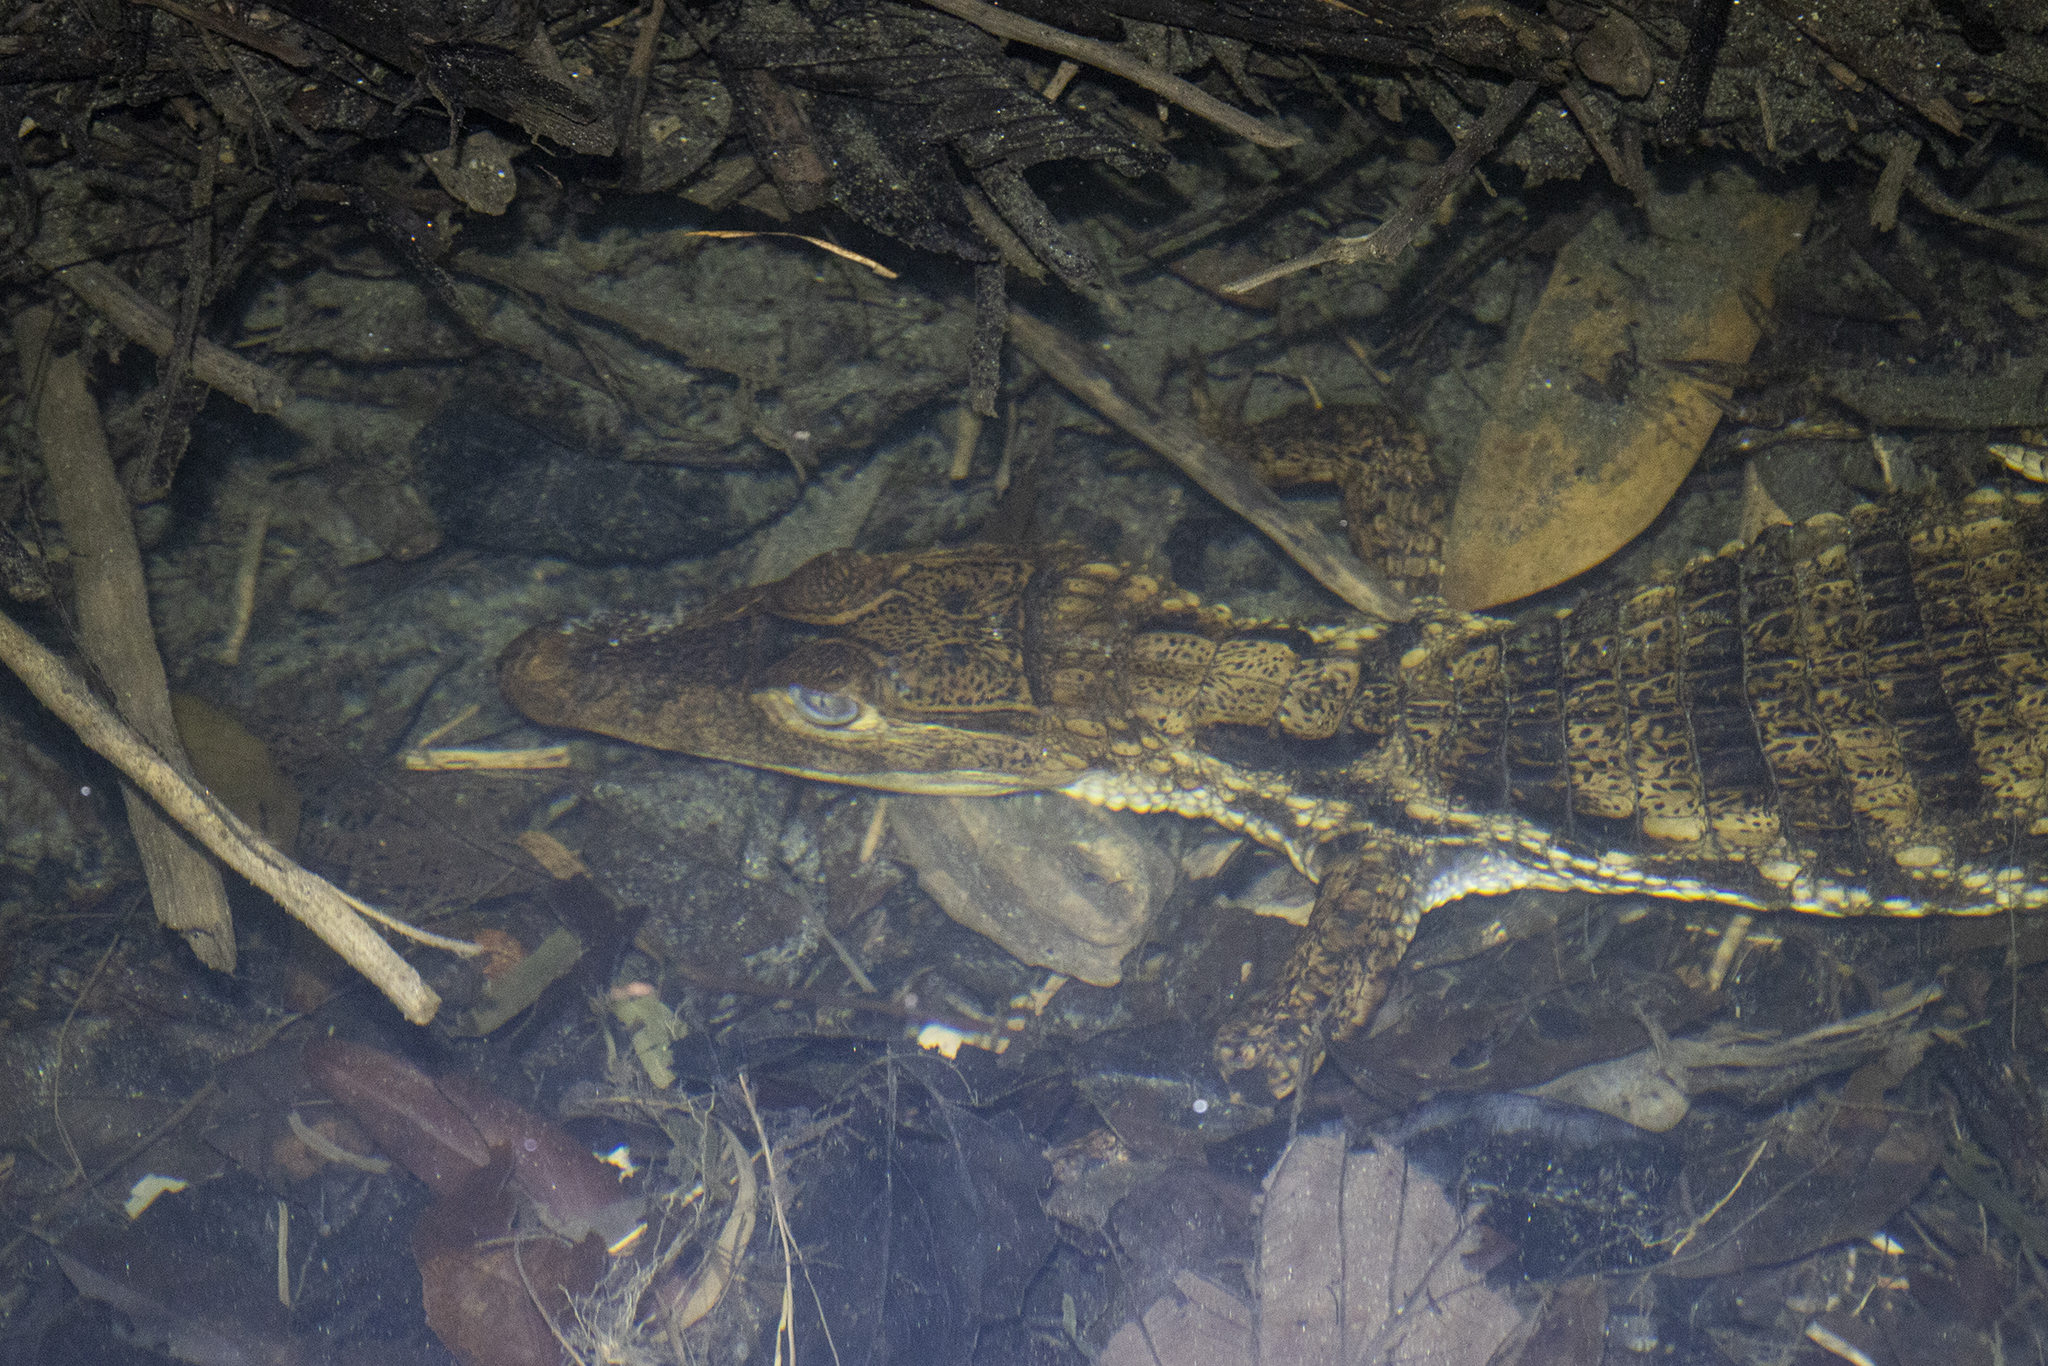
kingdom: Animalia
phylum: Chordata
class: Crocodylia
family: Alligatoridae
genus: Caiman
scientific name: Caiman crocodilus
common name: Common caiman
